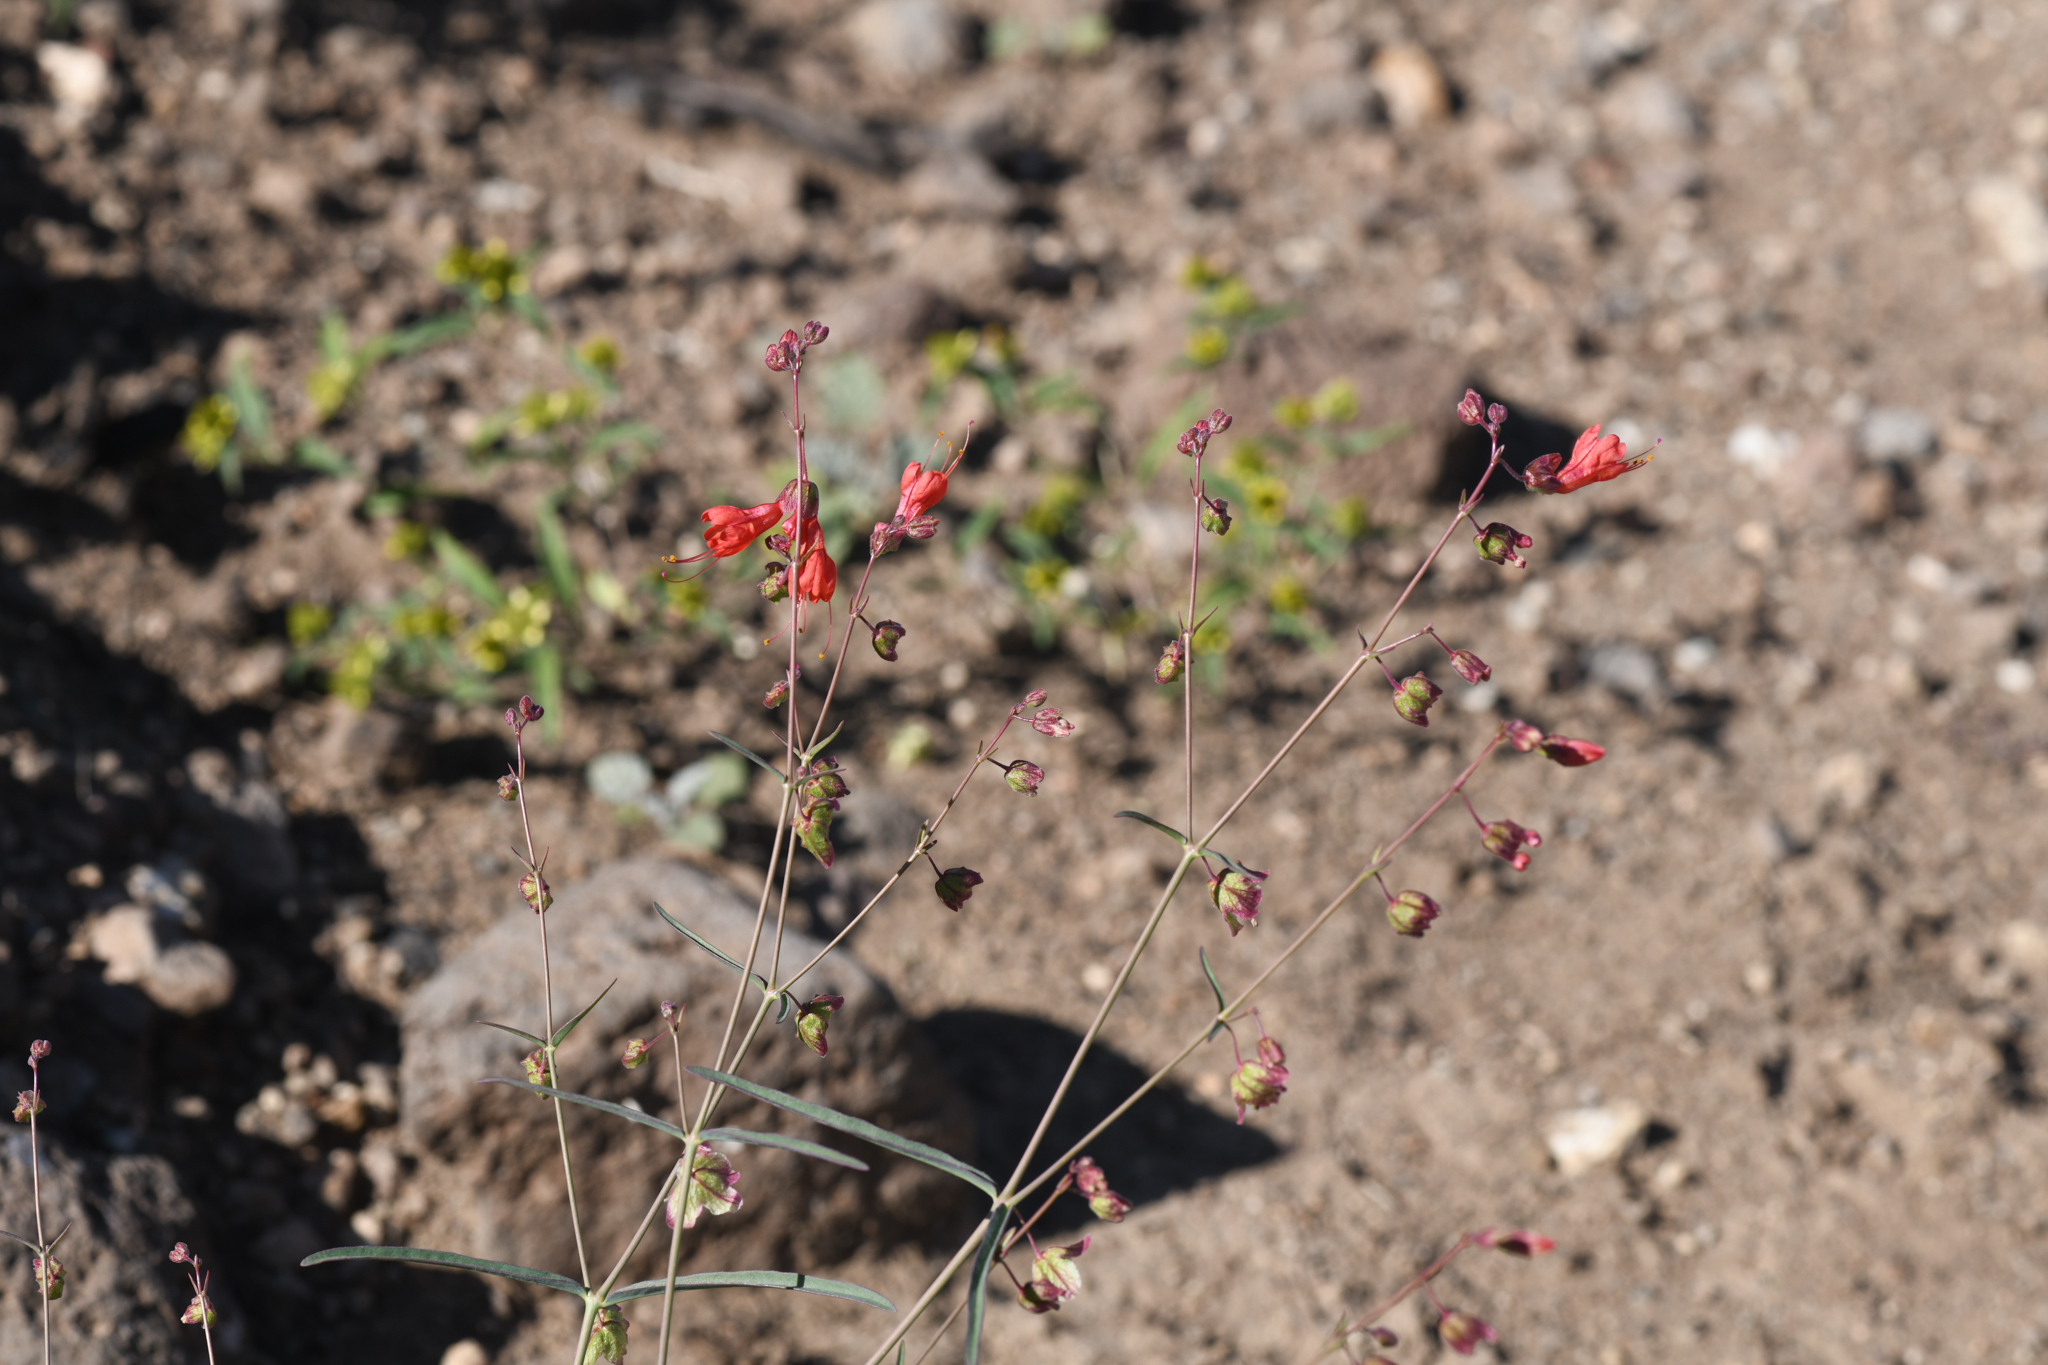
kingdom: Plantae
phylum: Tracheophyta
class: Magnoliopsida
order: Caryophyllales
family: Nyctaginaceae
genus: Mirabilis
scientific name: Mirabilis coccinea
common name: Scarlet four-o'clock
